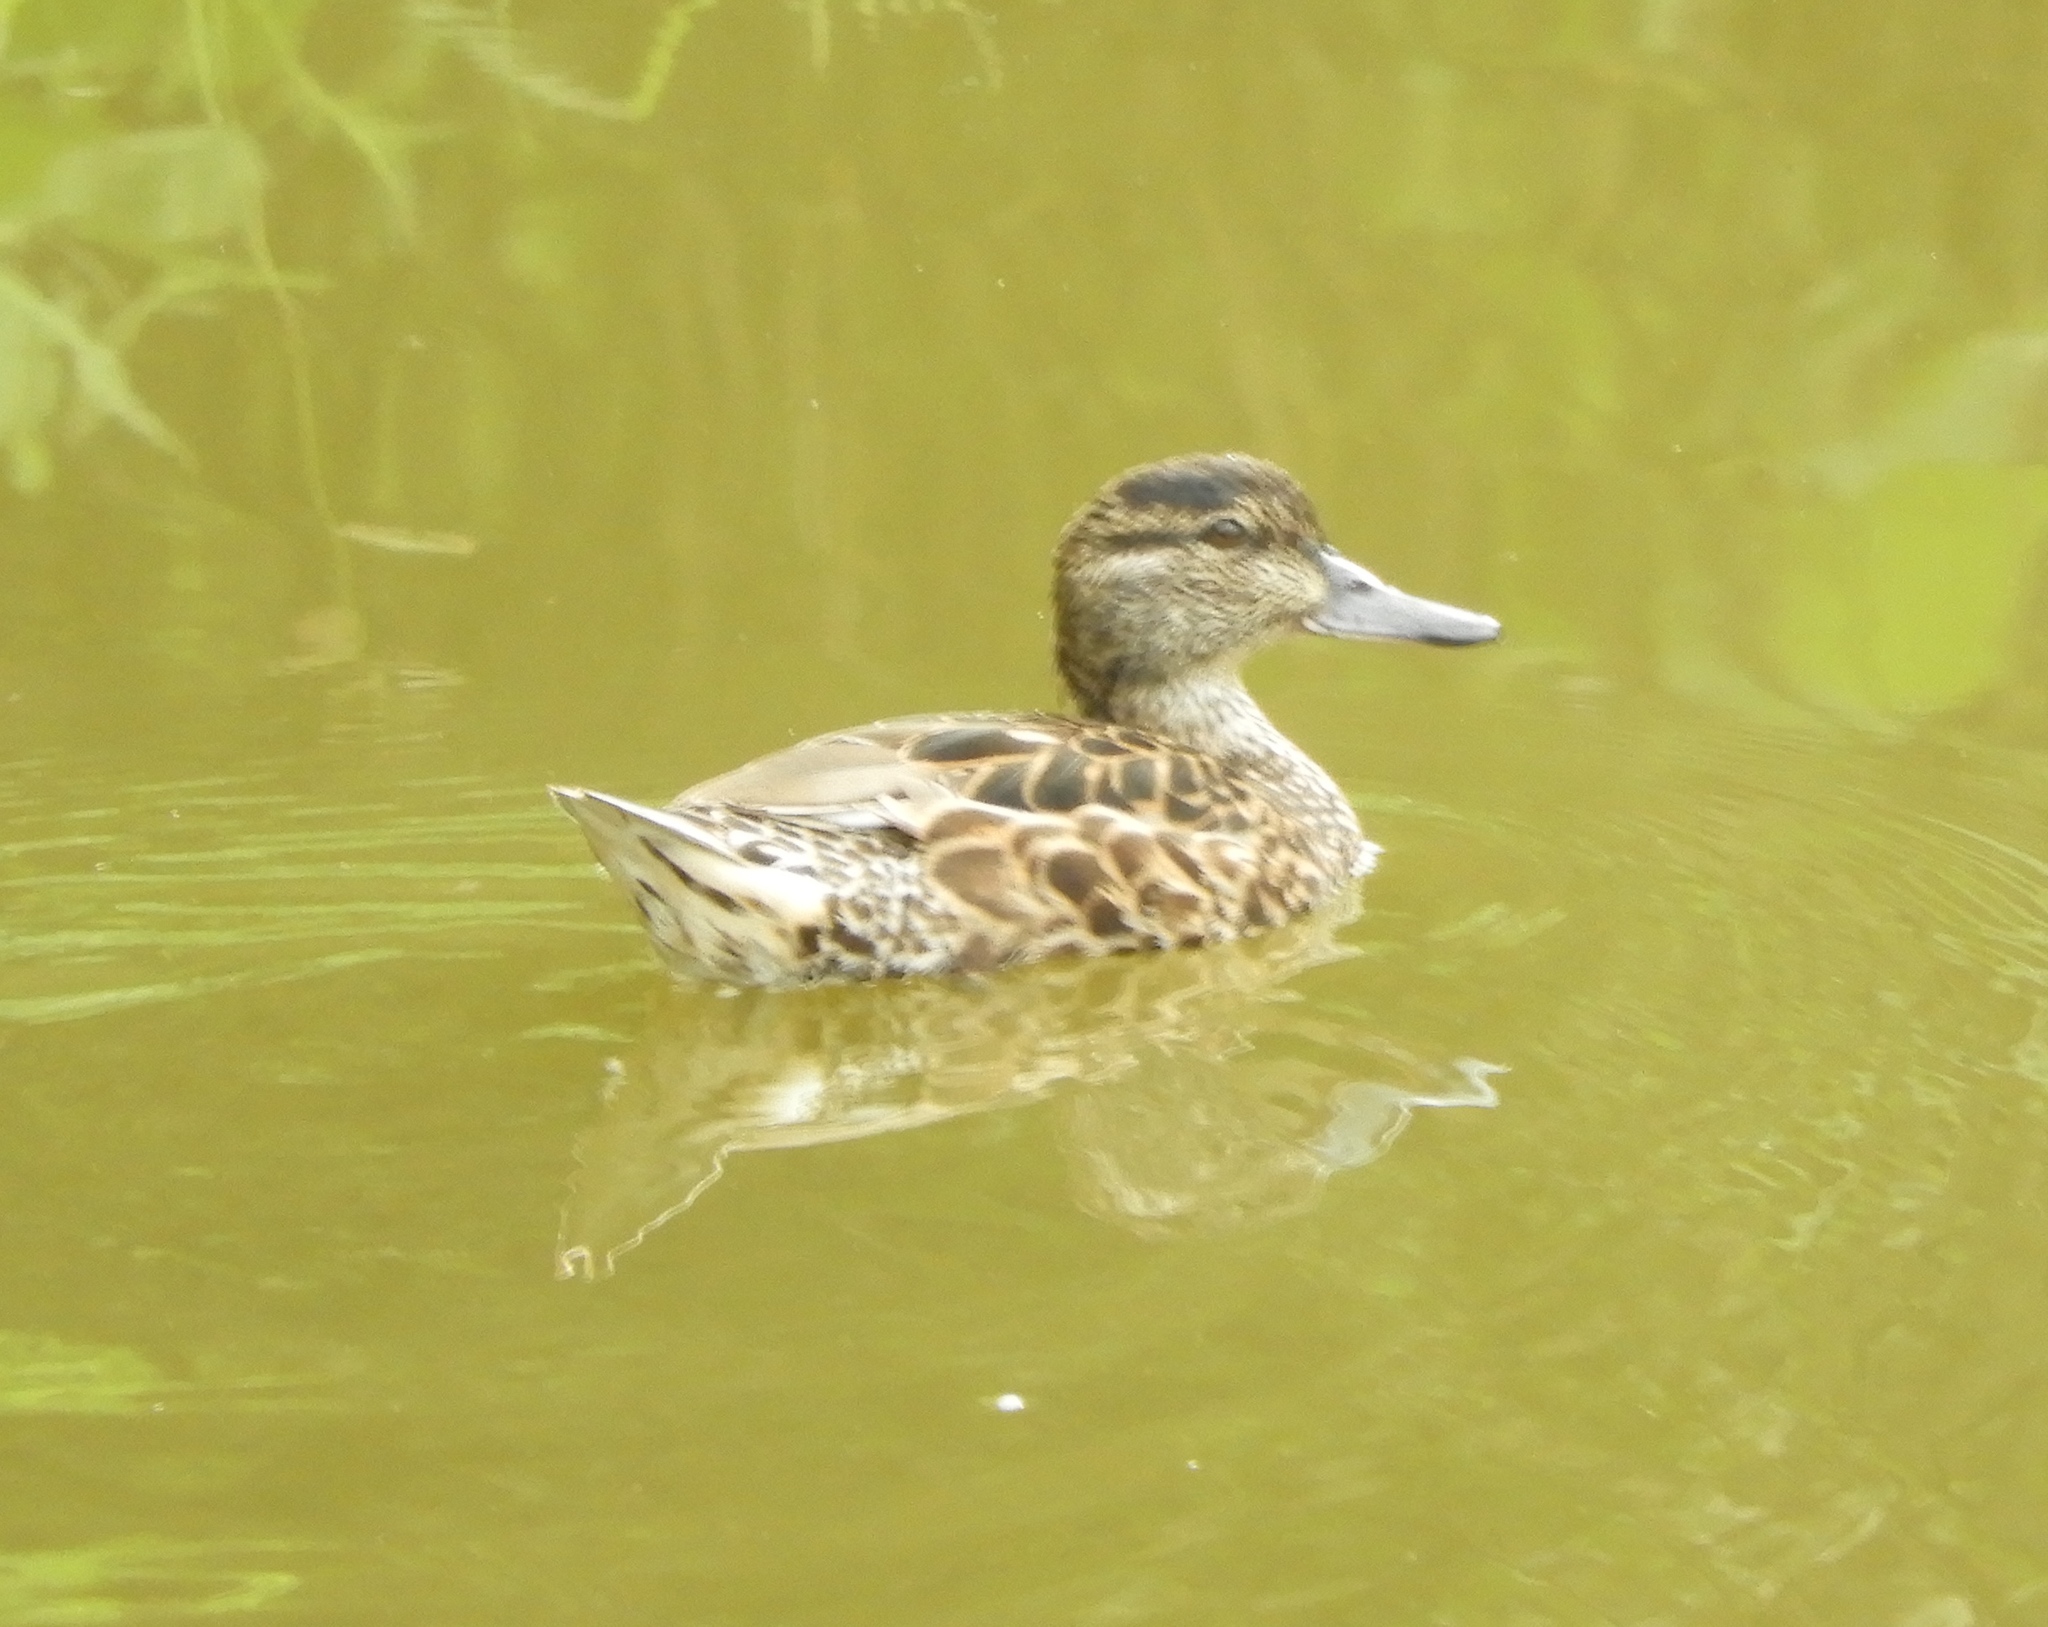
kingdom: Animalia
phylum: Chordata
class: Aves
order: Anseriformes
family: Anatidae
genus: Anas
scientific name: Anas crecca
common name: Eurasian teal
